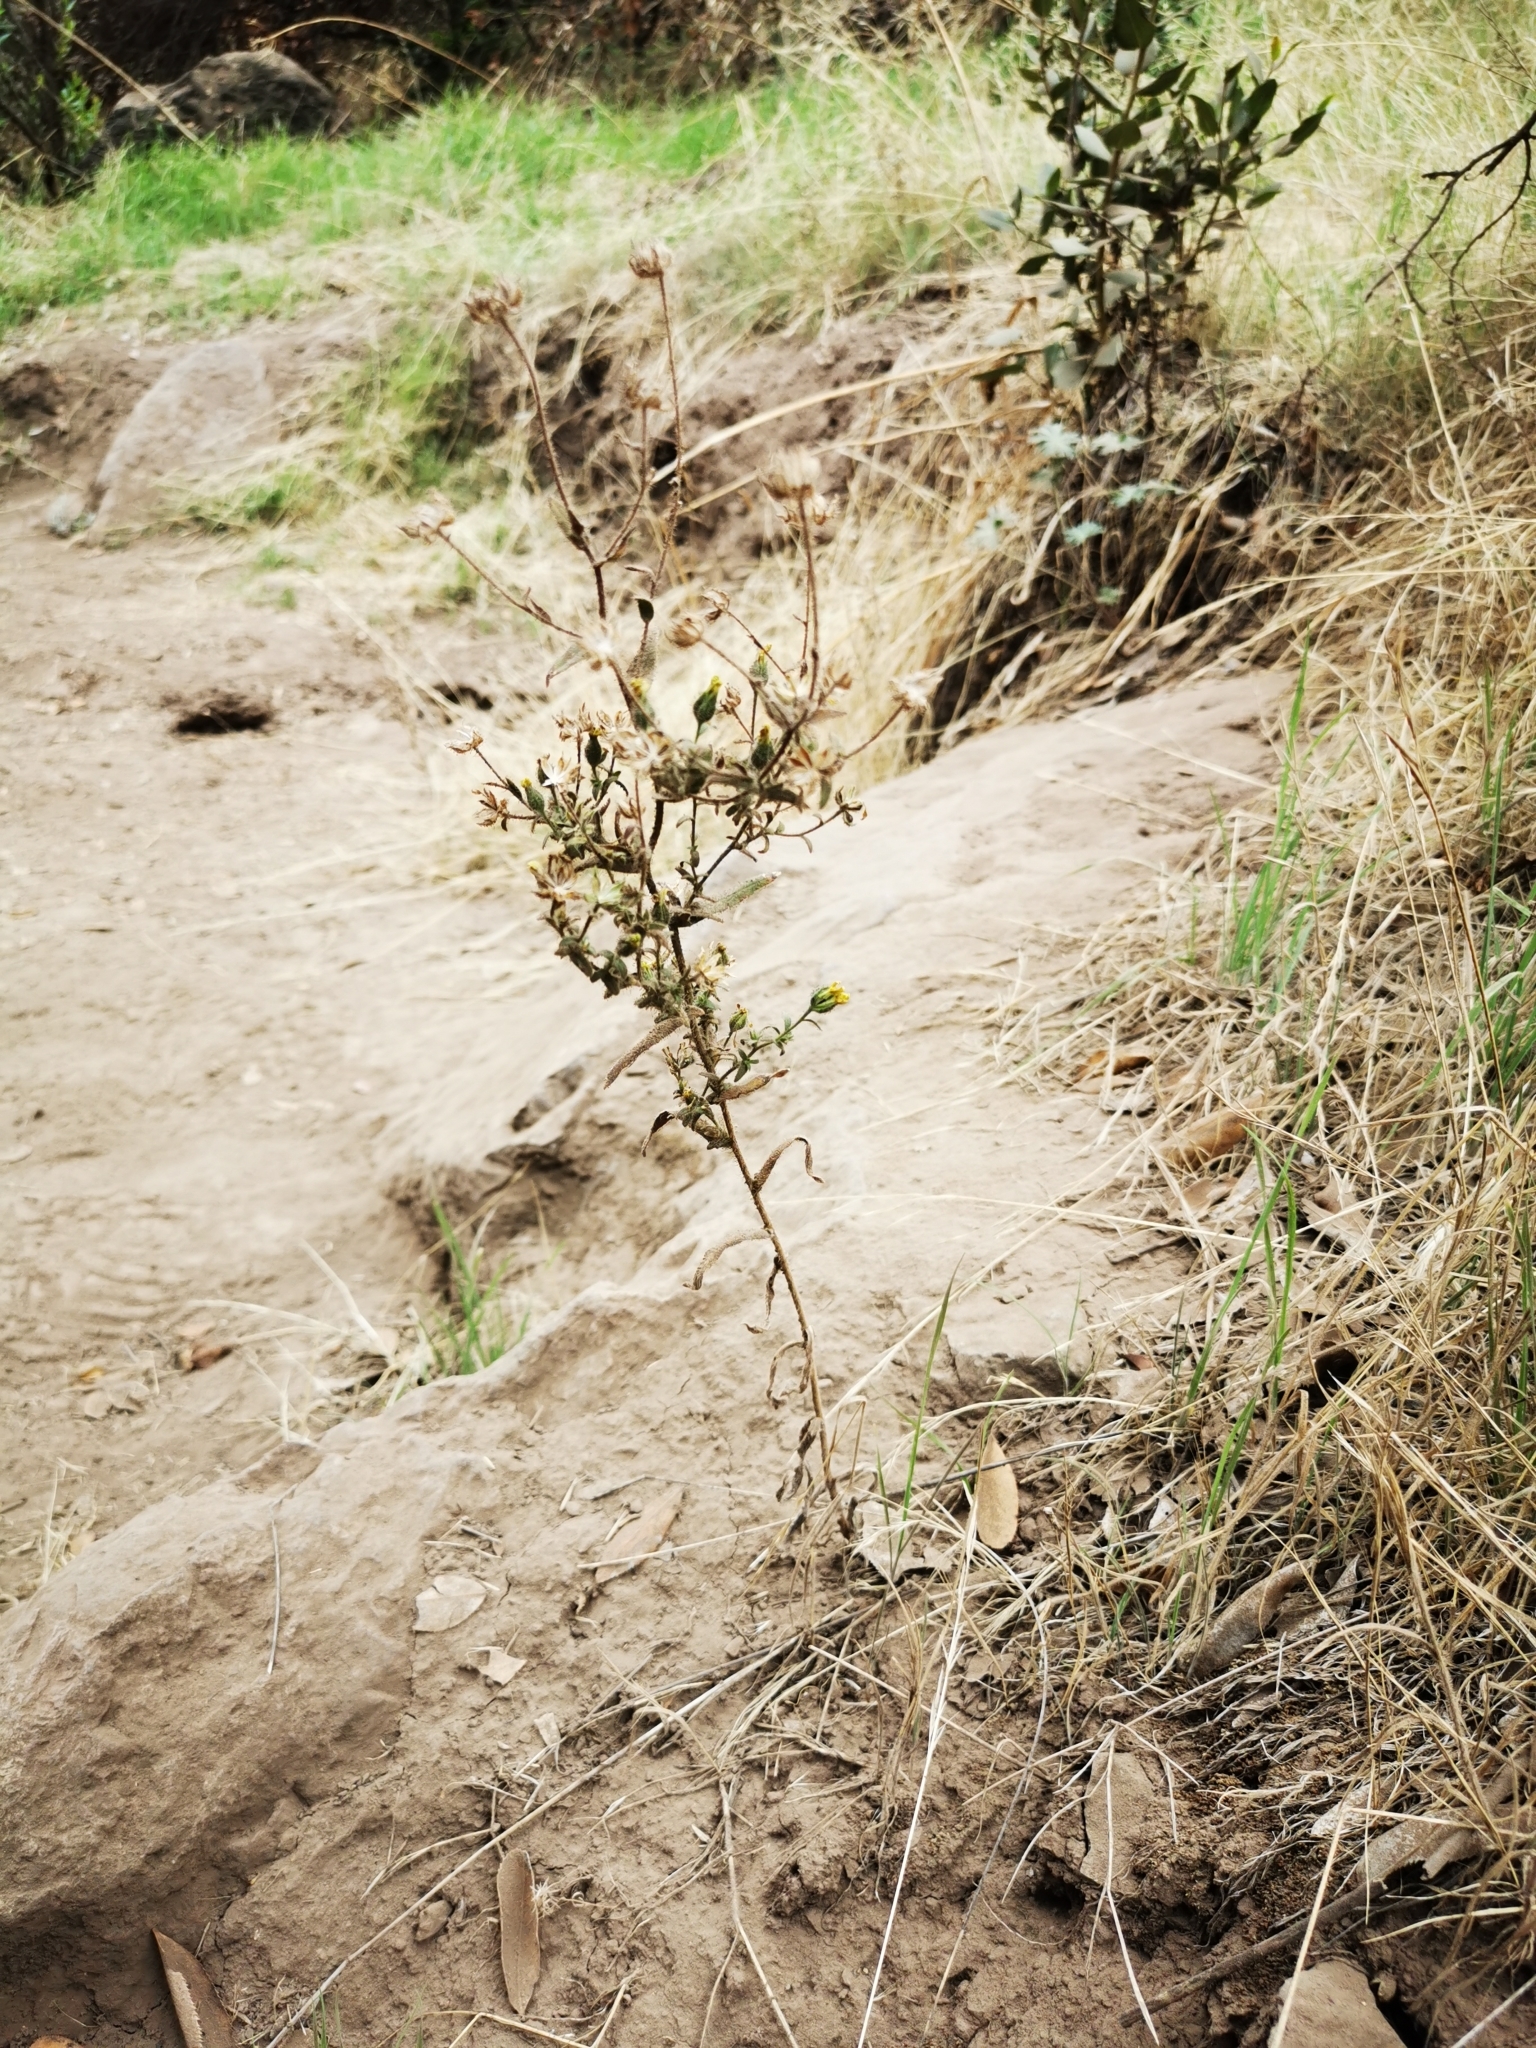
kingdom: Plantae
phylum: Tracheophyta
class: Magnoliopsida
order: Asterales
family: Asteraceae
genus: Madia
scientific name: Madia chilensis
